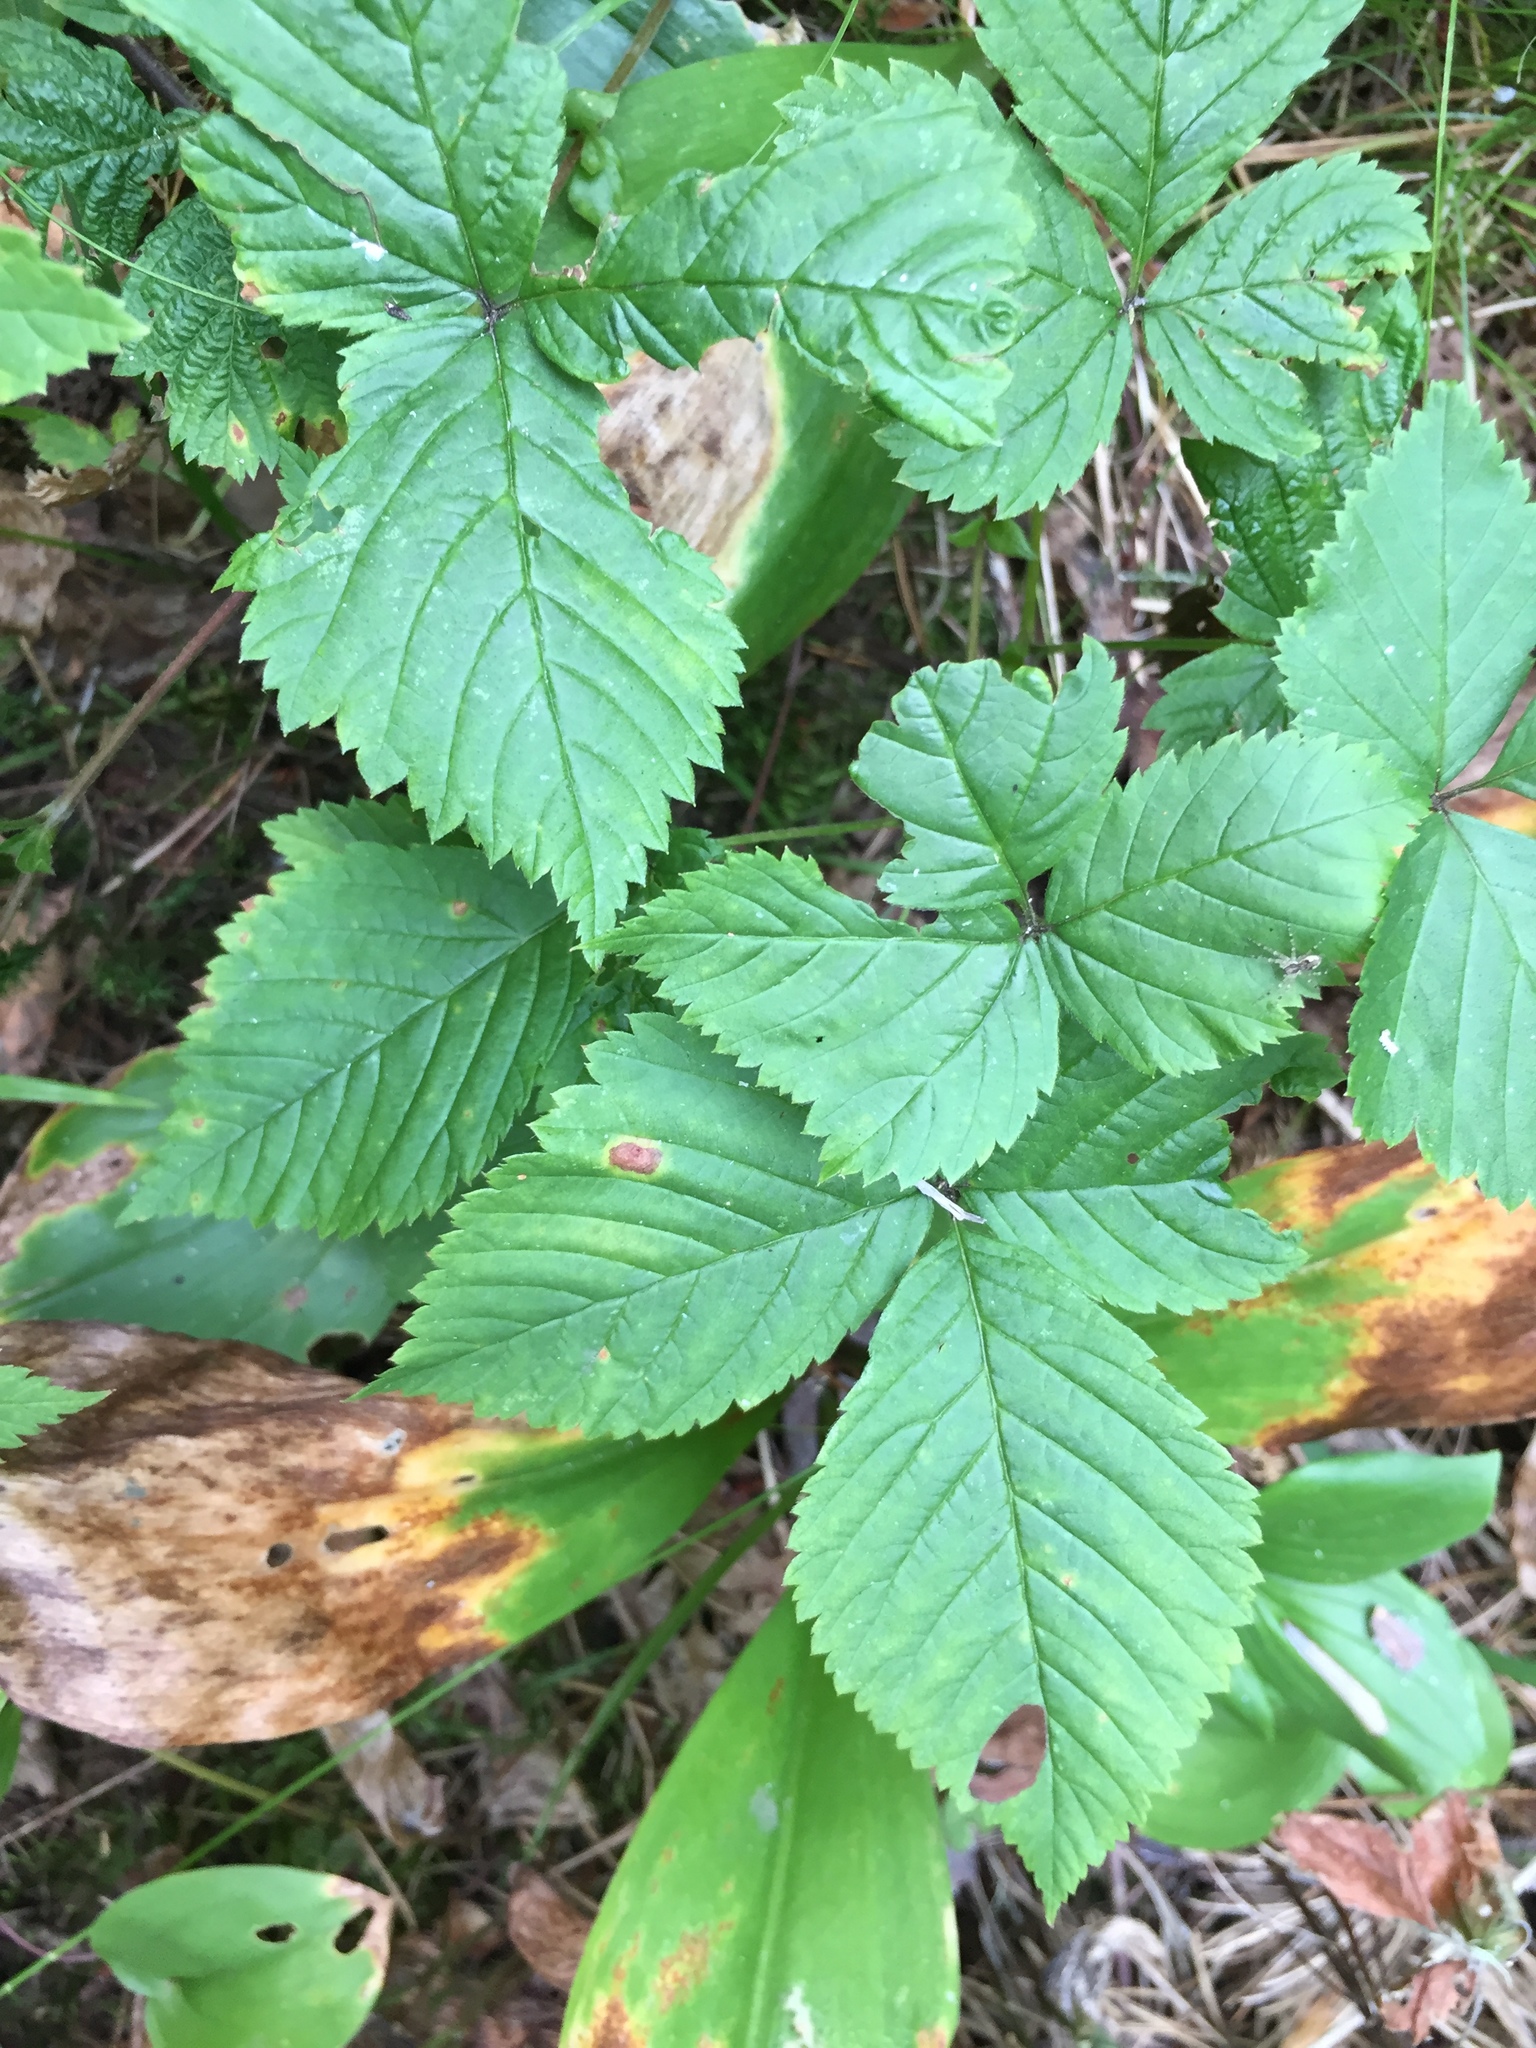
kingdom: Plantae
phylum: Tracheophyta
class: Magnoliopsida
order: Rosales
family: Rosaceae
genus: Rubus
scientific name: Rubus pubescens
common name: Dwarf raspberry
